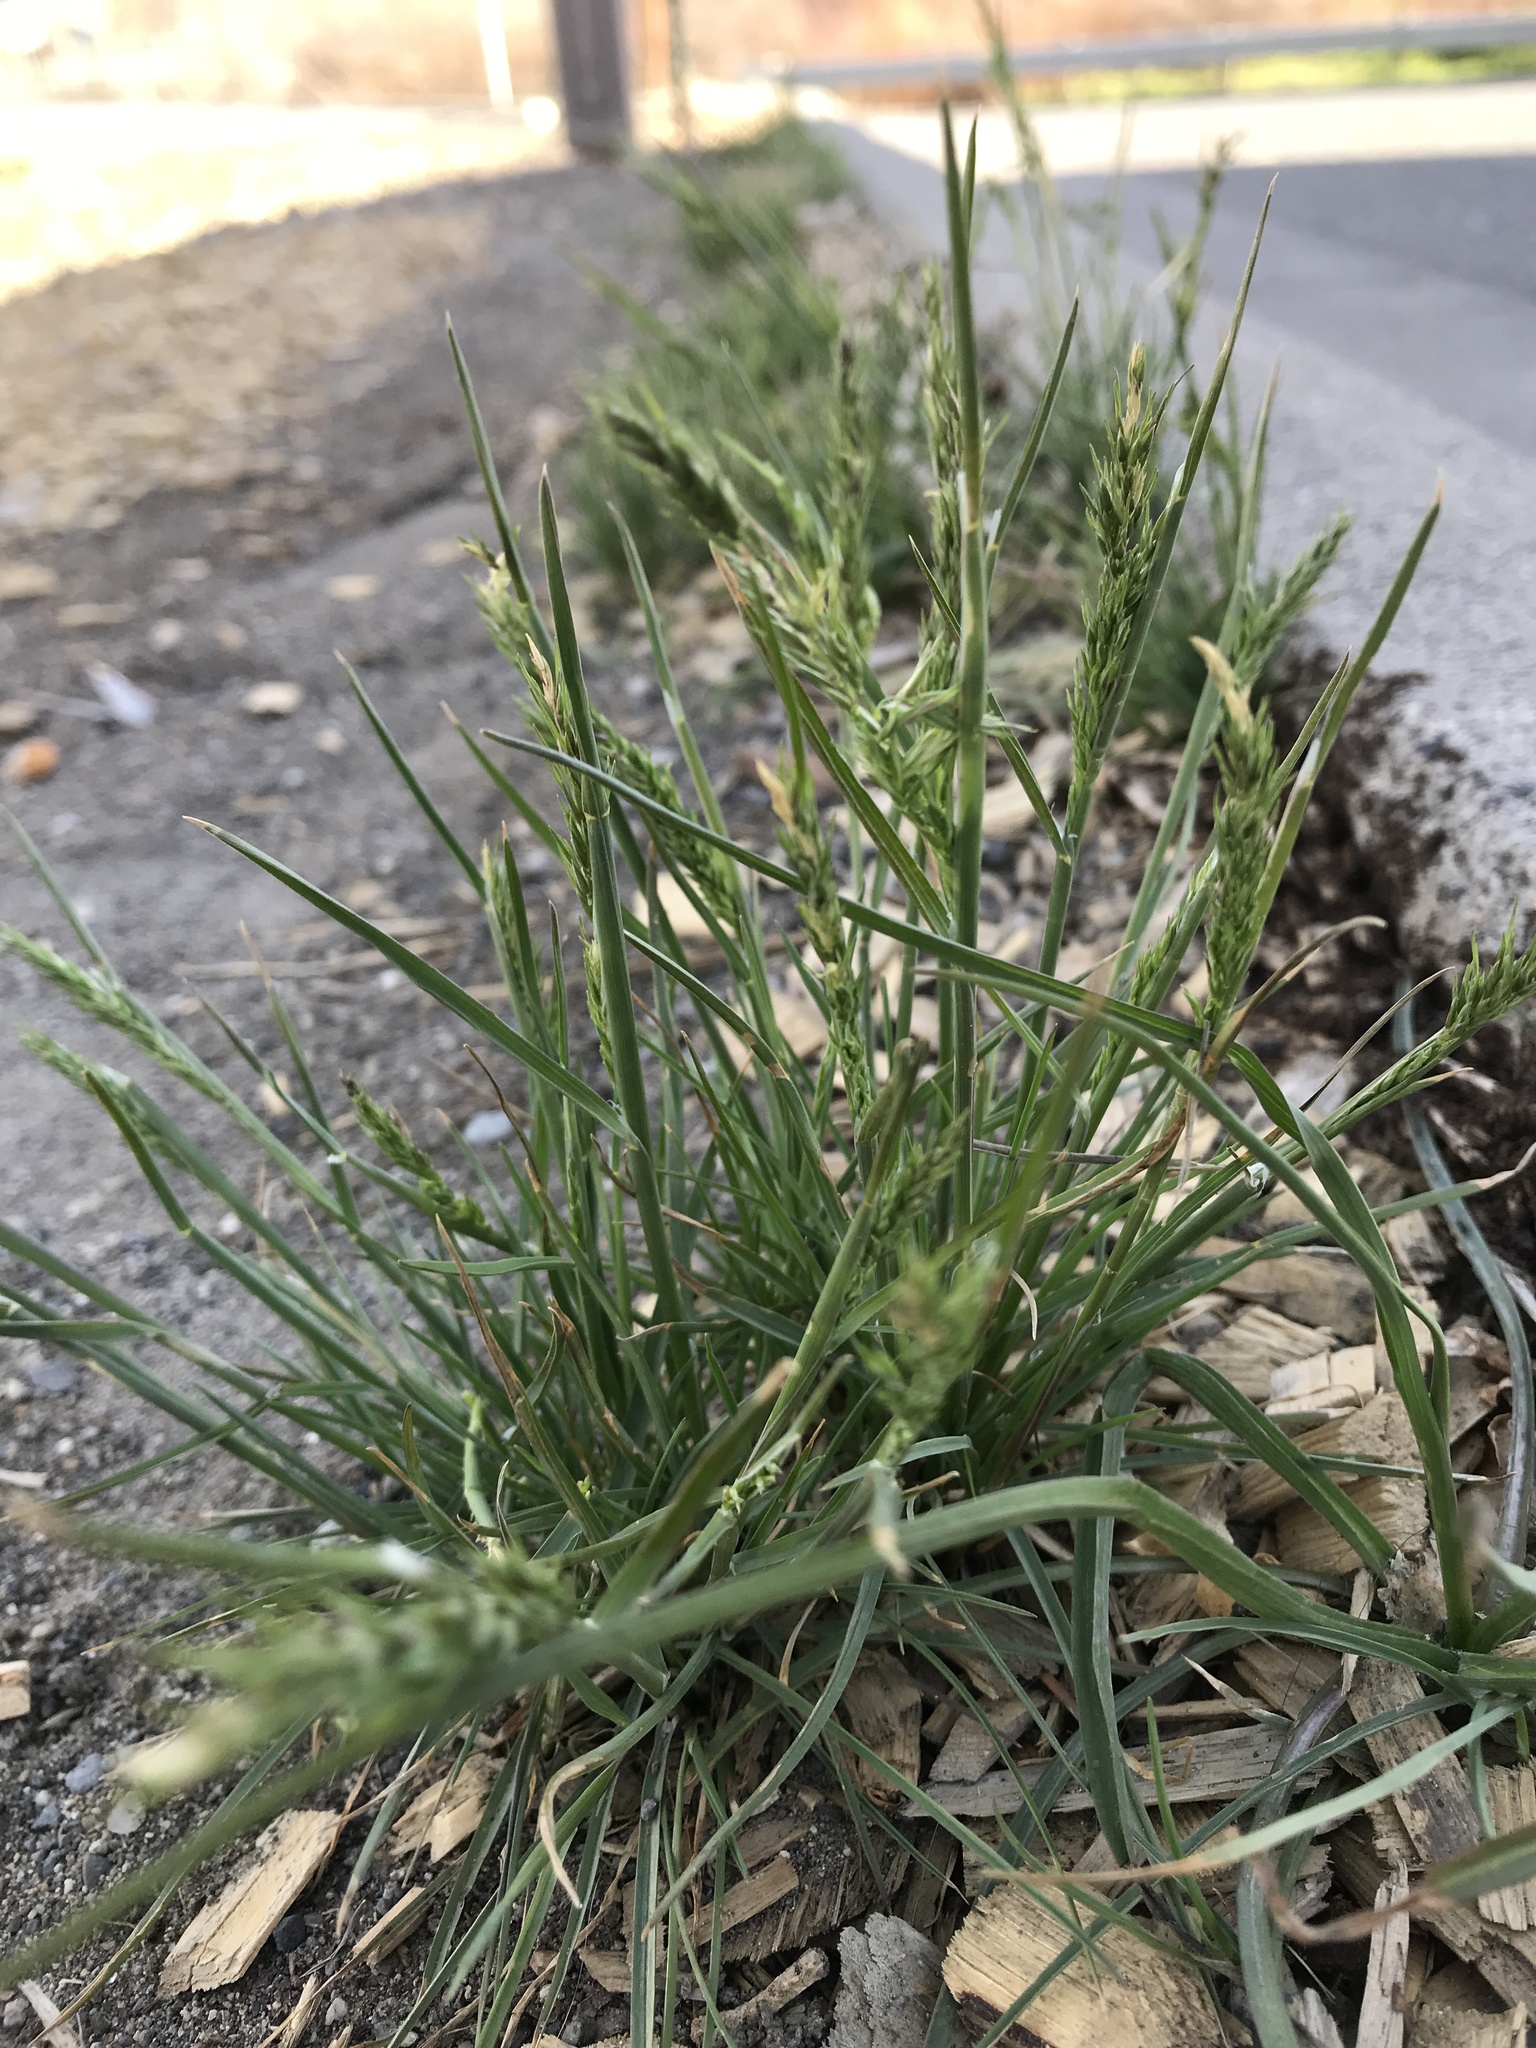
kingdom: Plantae
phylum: Tracheophyta
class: Liliopsida
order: Poales
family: Poaceae
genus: Poa
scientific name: Poa bulbosa
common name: Bulbous bluegrass
